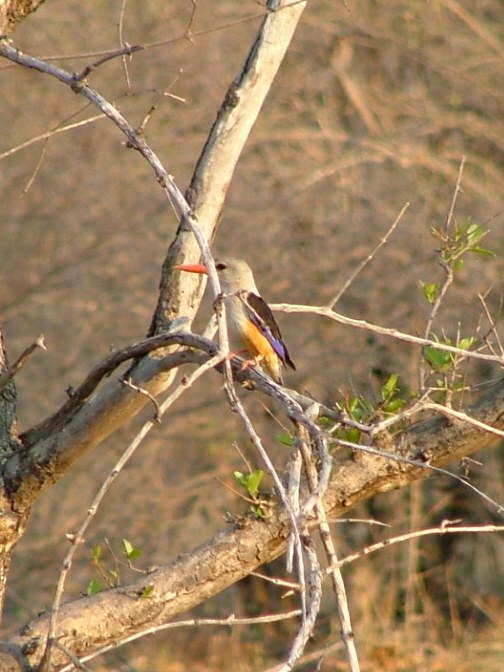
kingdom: Animalia
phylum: Chordata
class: Aves
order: Coraciiformes
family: Alcedinidae
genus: Halcyon
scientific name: Halcyon leucocephala
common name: Grey-headed kingfisher
